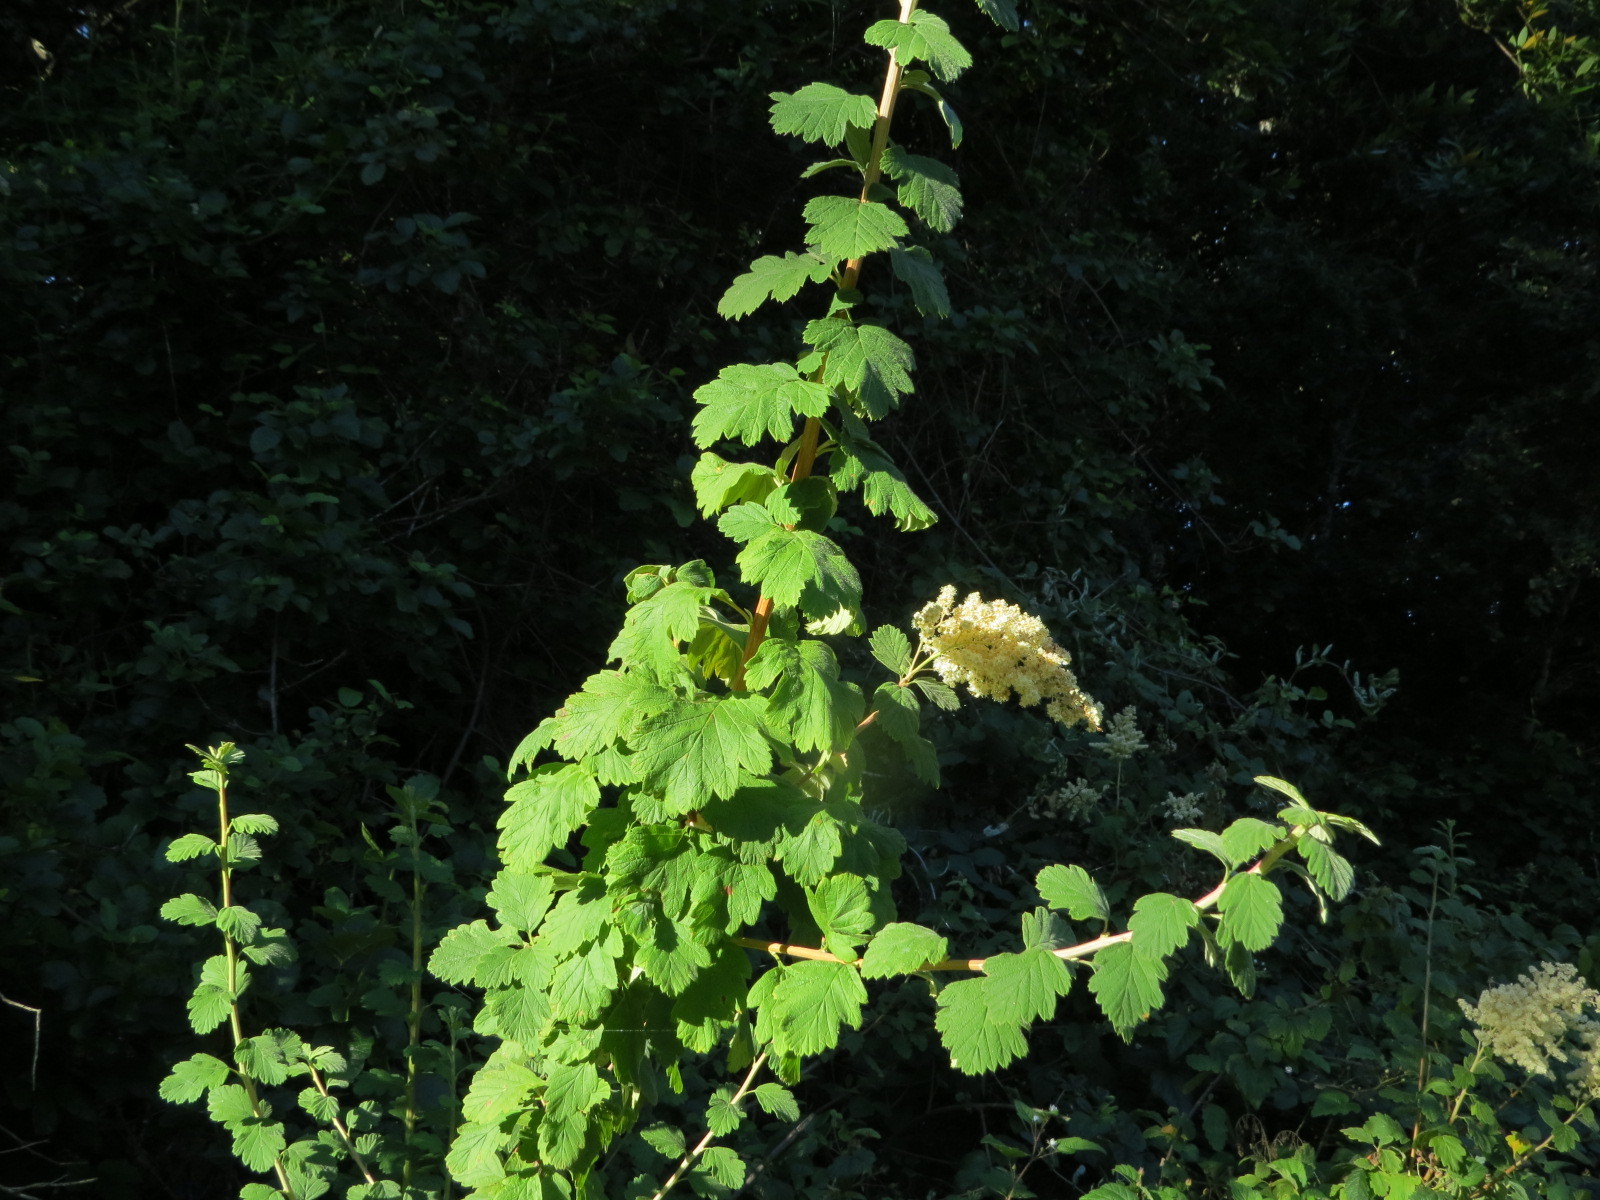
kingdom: Plantae
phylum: Tracheophyta
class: Magnoliopsida
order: Rosales
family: Rosaceae
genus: Holodiscus
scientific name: Holodiscus discolor
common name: Oceanspray
